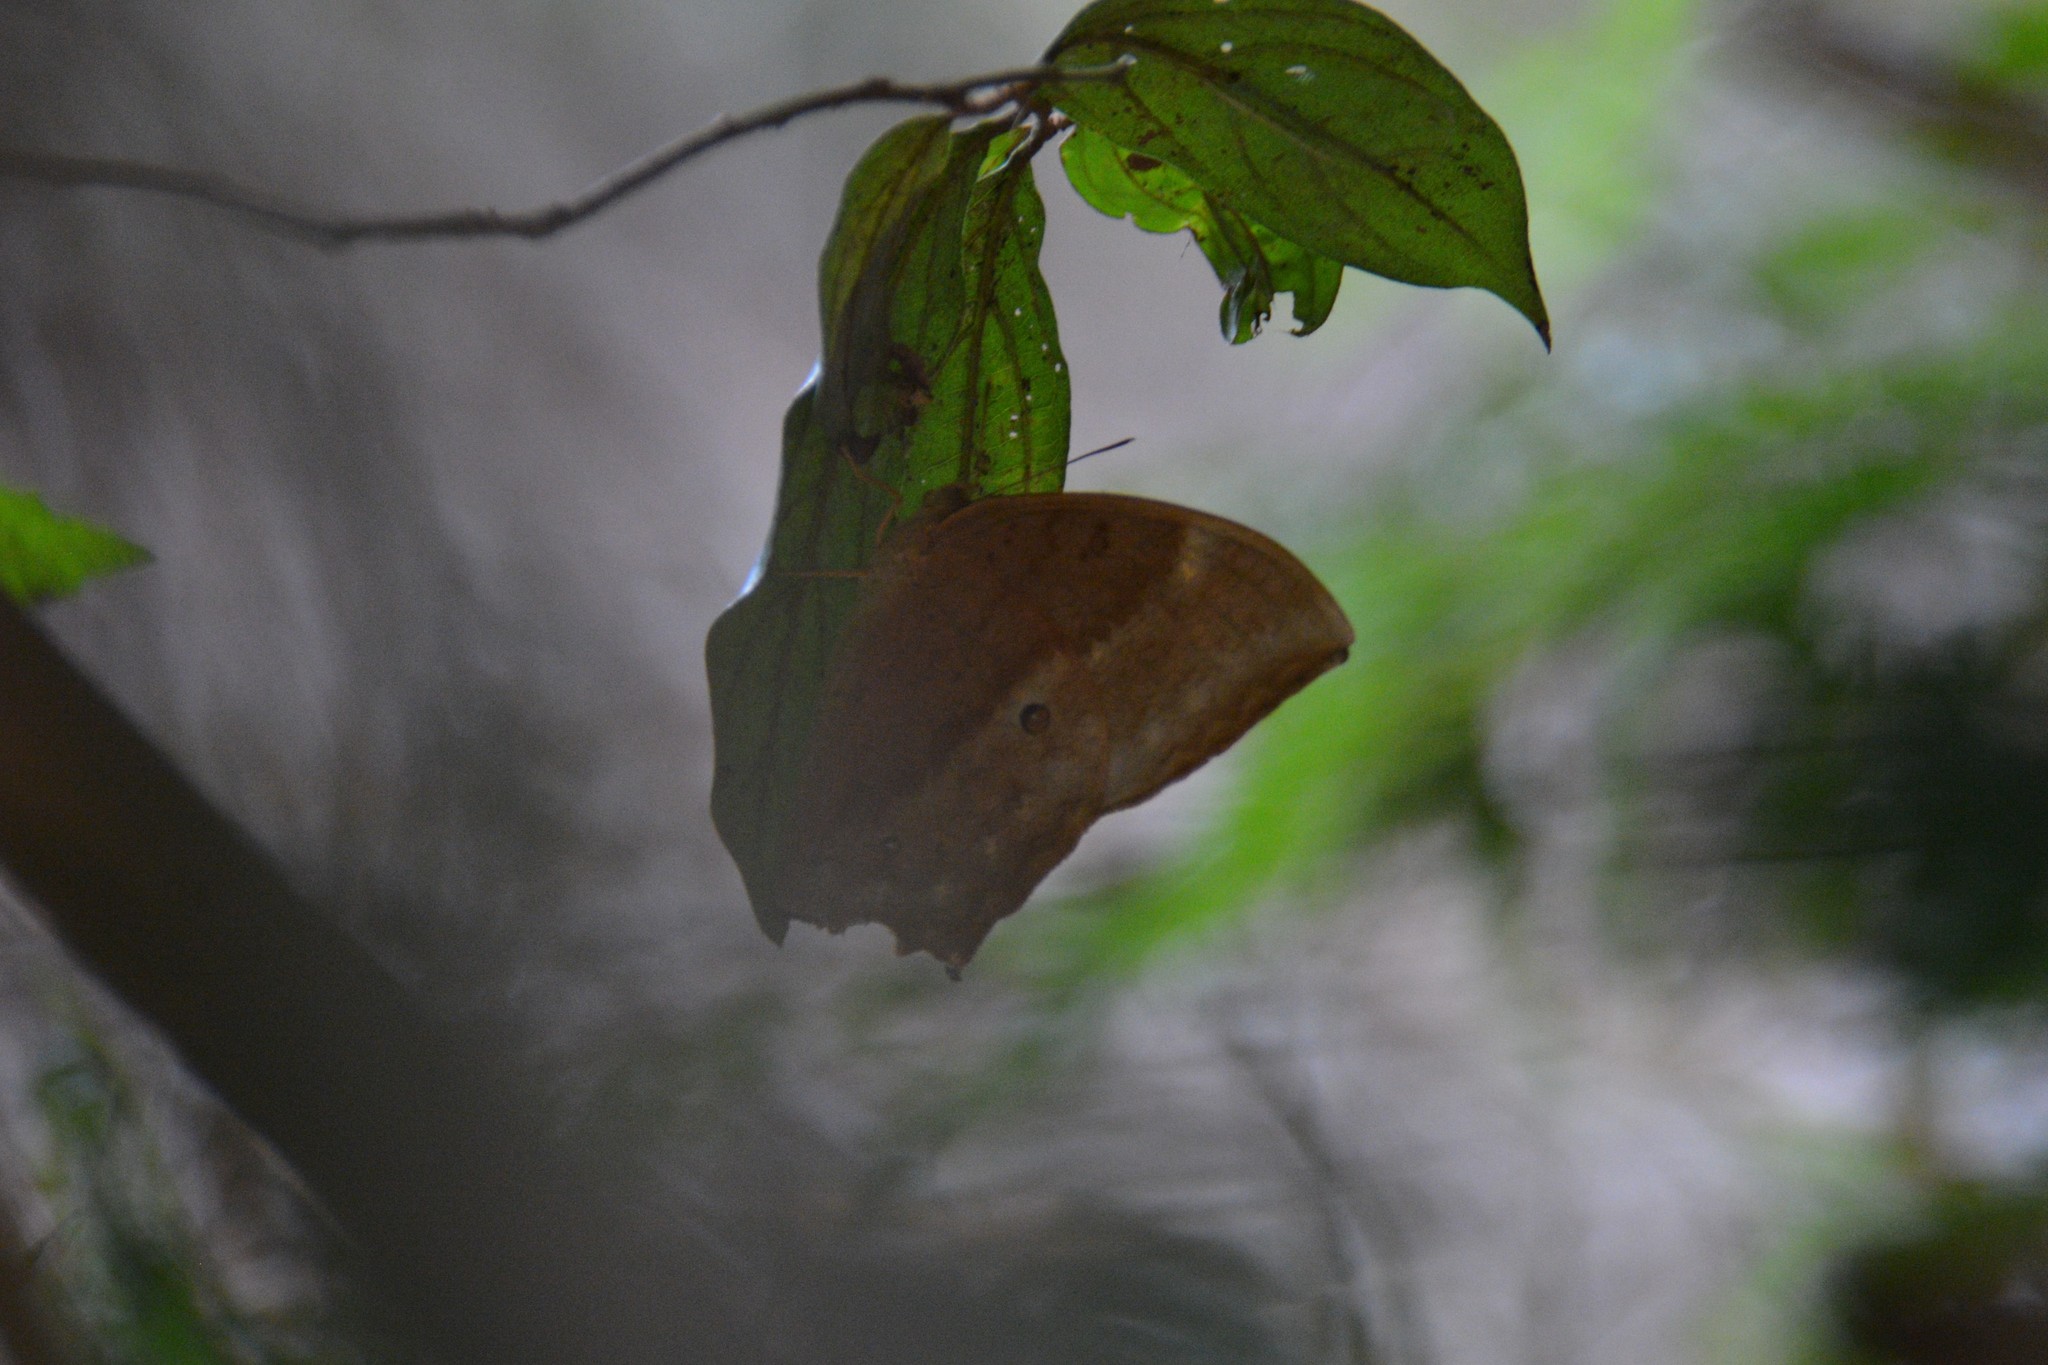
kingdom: Animalia
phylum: Arthropoda
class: Insecta
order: Lepidoptera
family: Nymphalidae
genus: Discophora
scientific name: Discophora sondaica
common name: Common duffer
